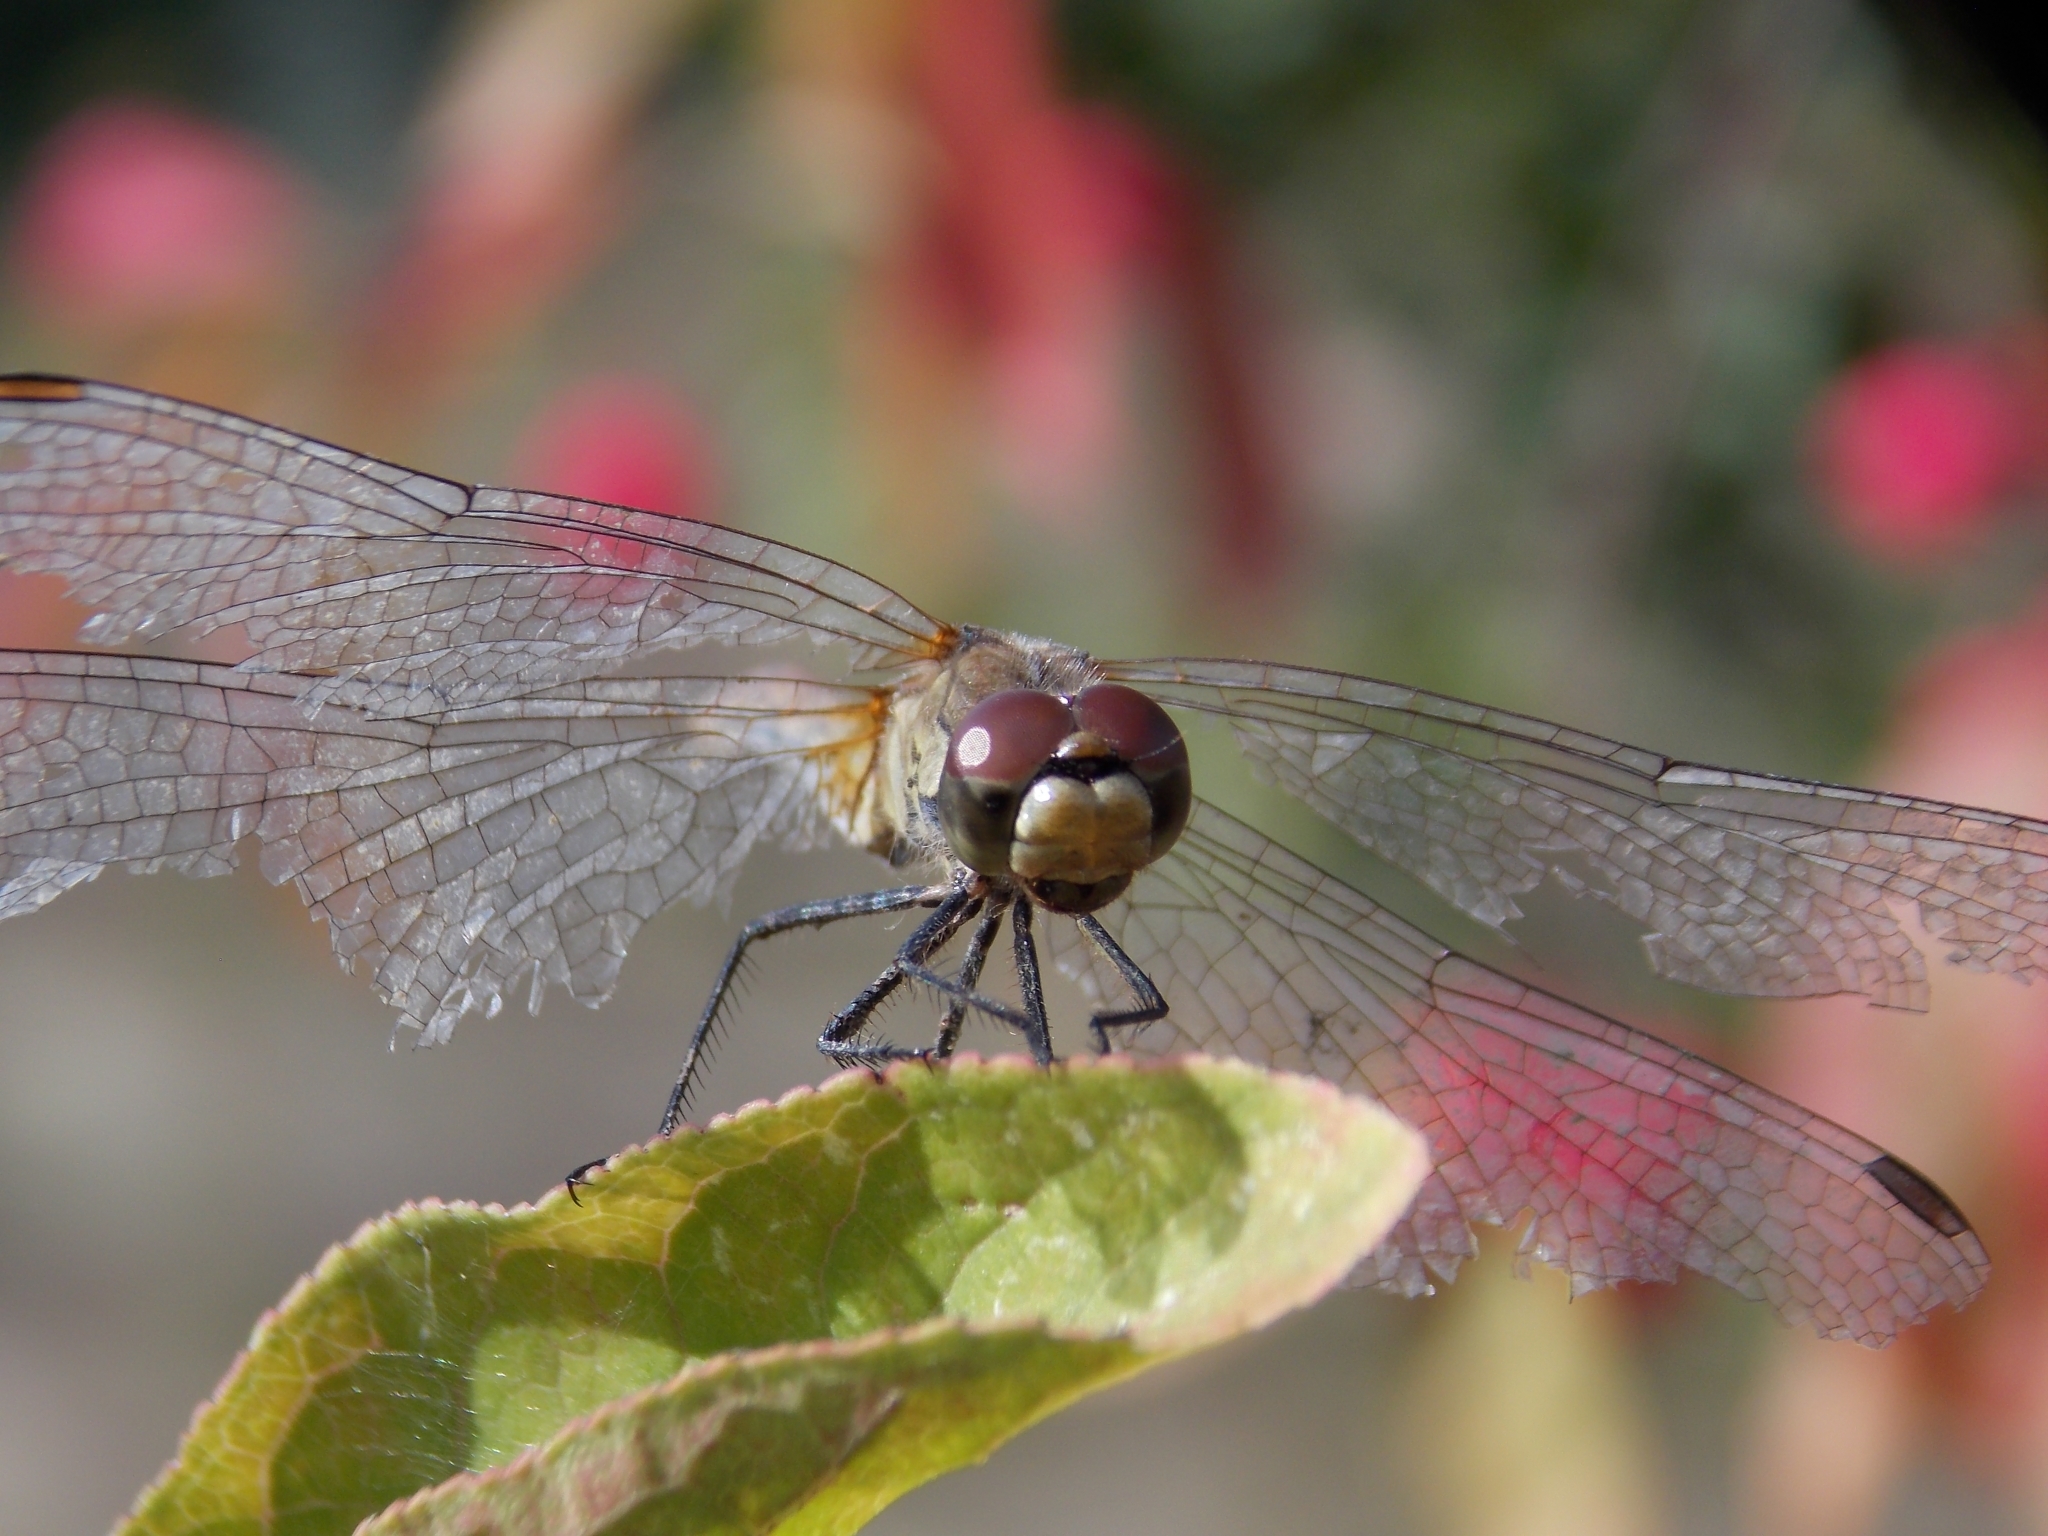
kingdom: Animalia
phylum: Arthropoda
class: Insecta
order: Odonata
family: Libellulidae
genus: Sympetrum
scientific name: Sympetrum sanguineum
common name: Ruddy darter
